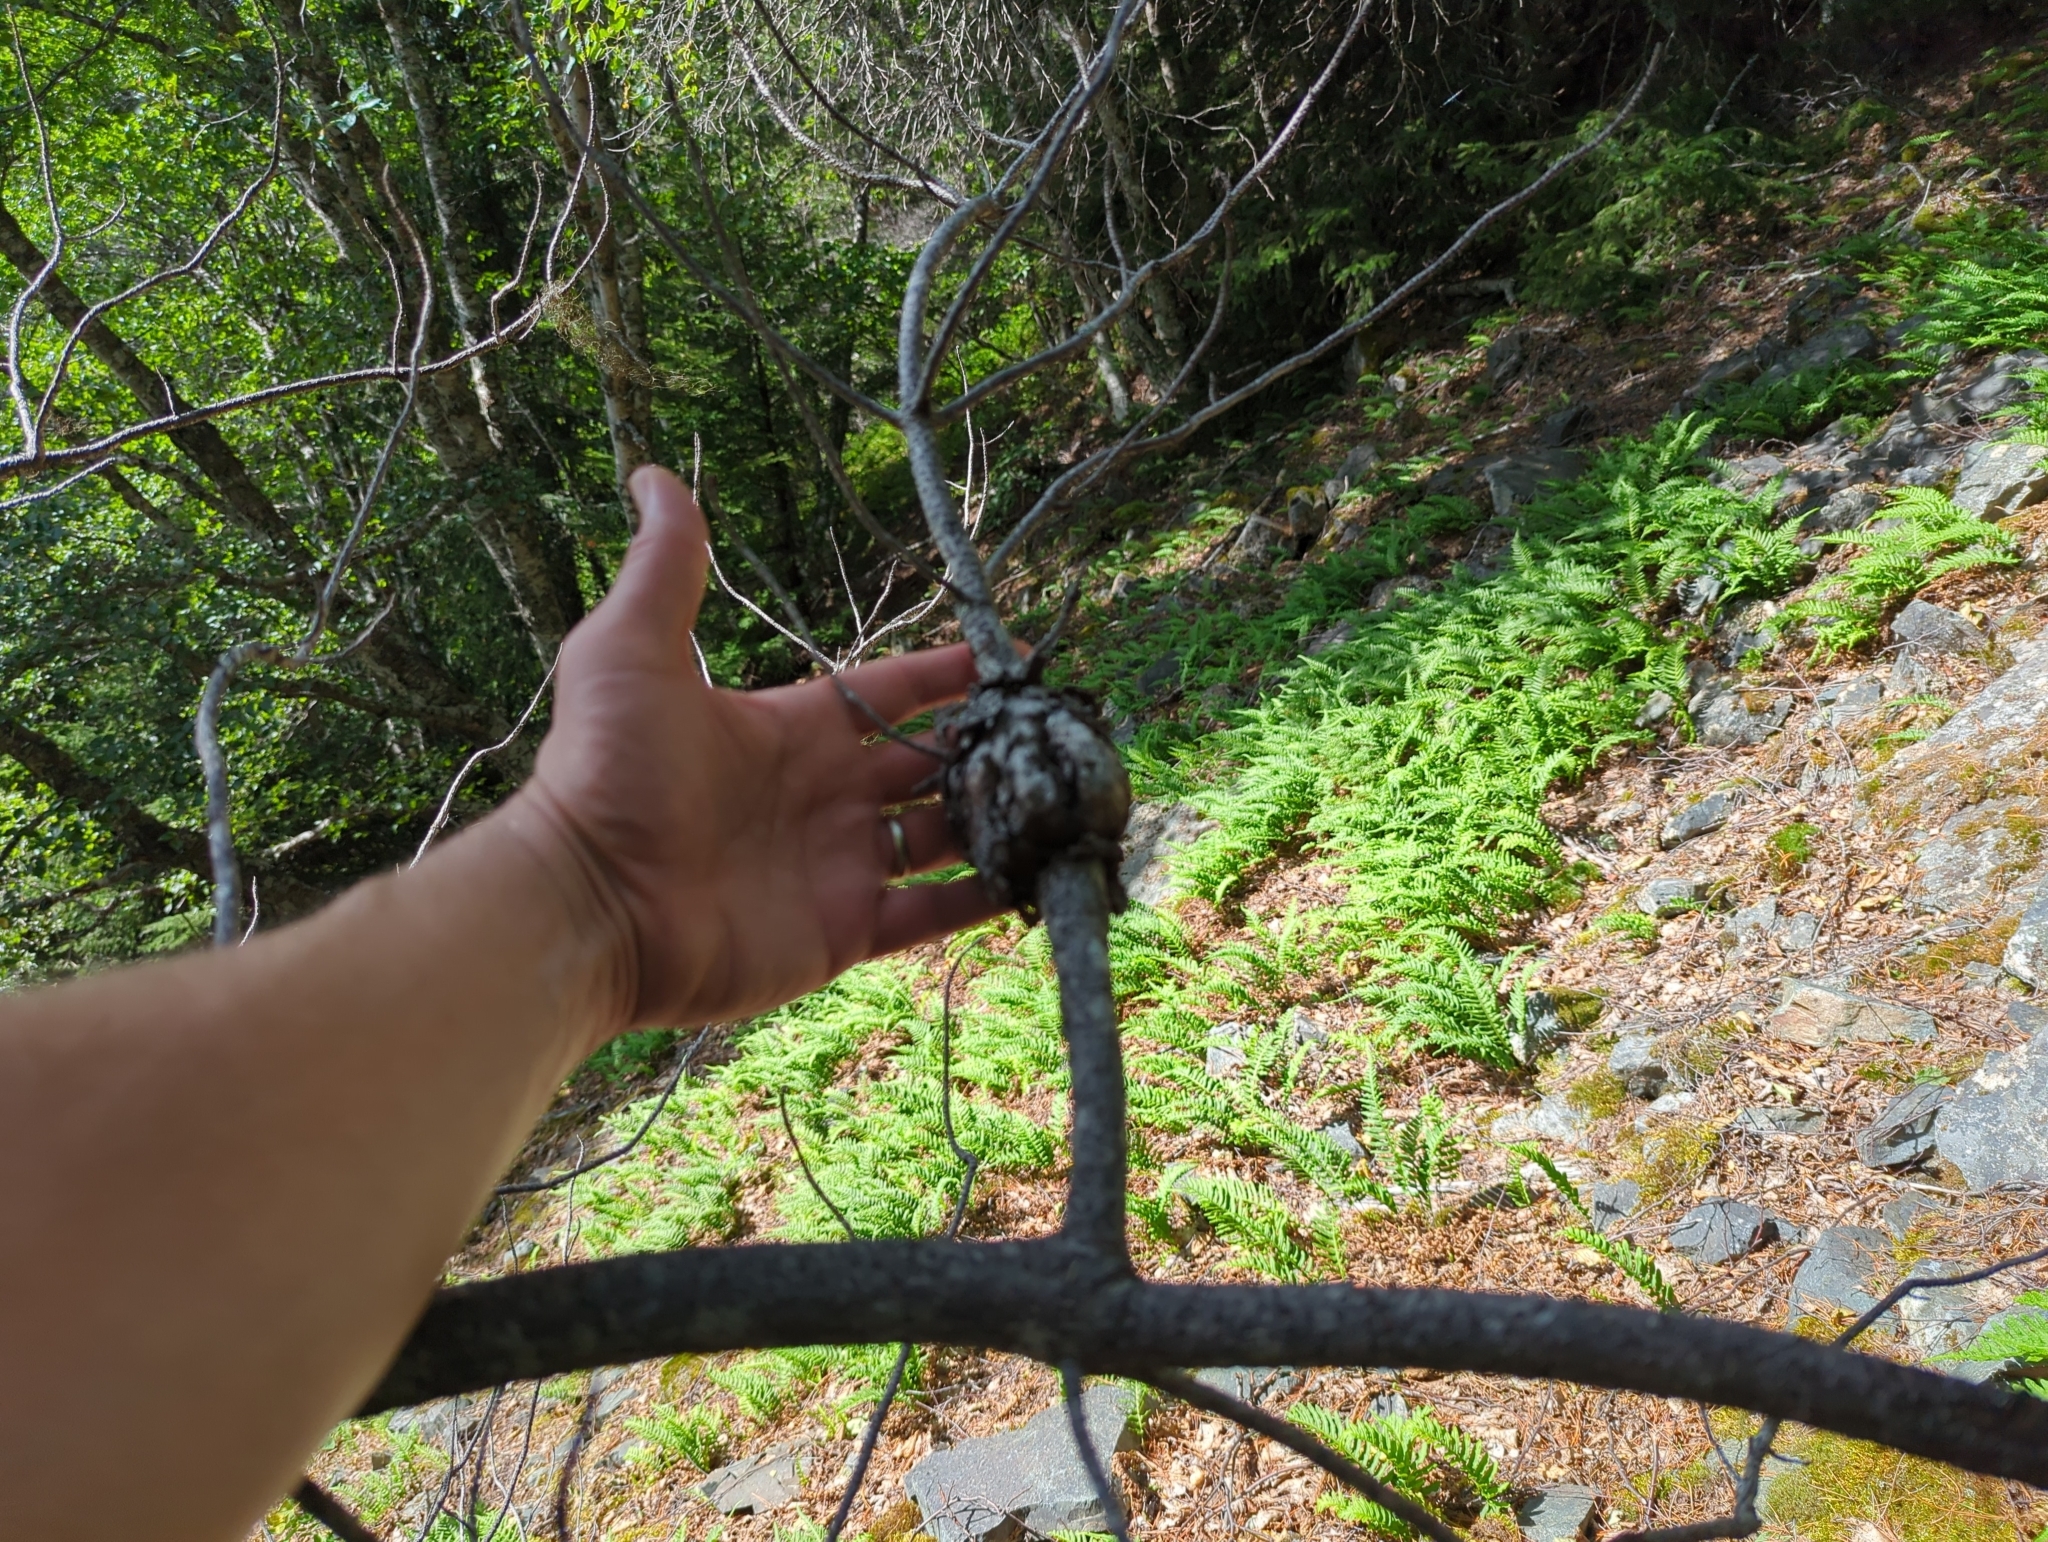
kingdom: Fungi
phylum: Basidiomycota
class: Pucciniomycetes
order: Pucciniales
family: Cronartiaceae
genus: Cronartium
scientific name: Cronartium harknessii
